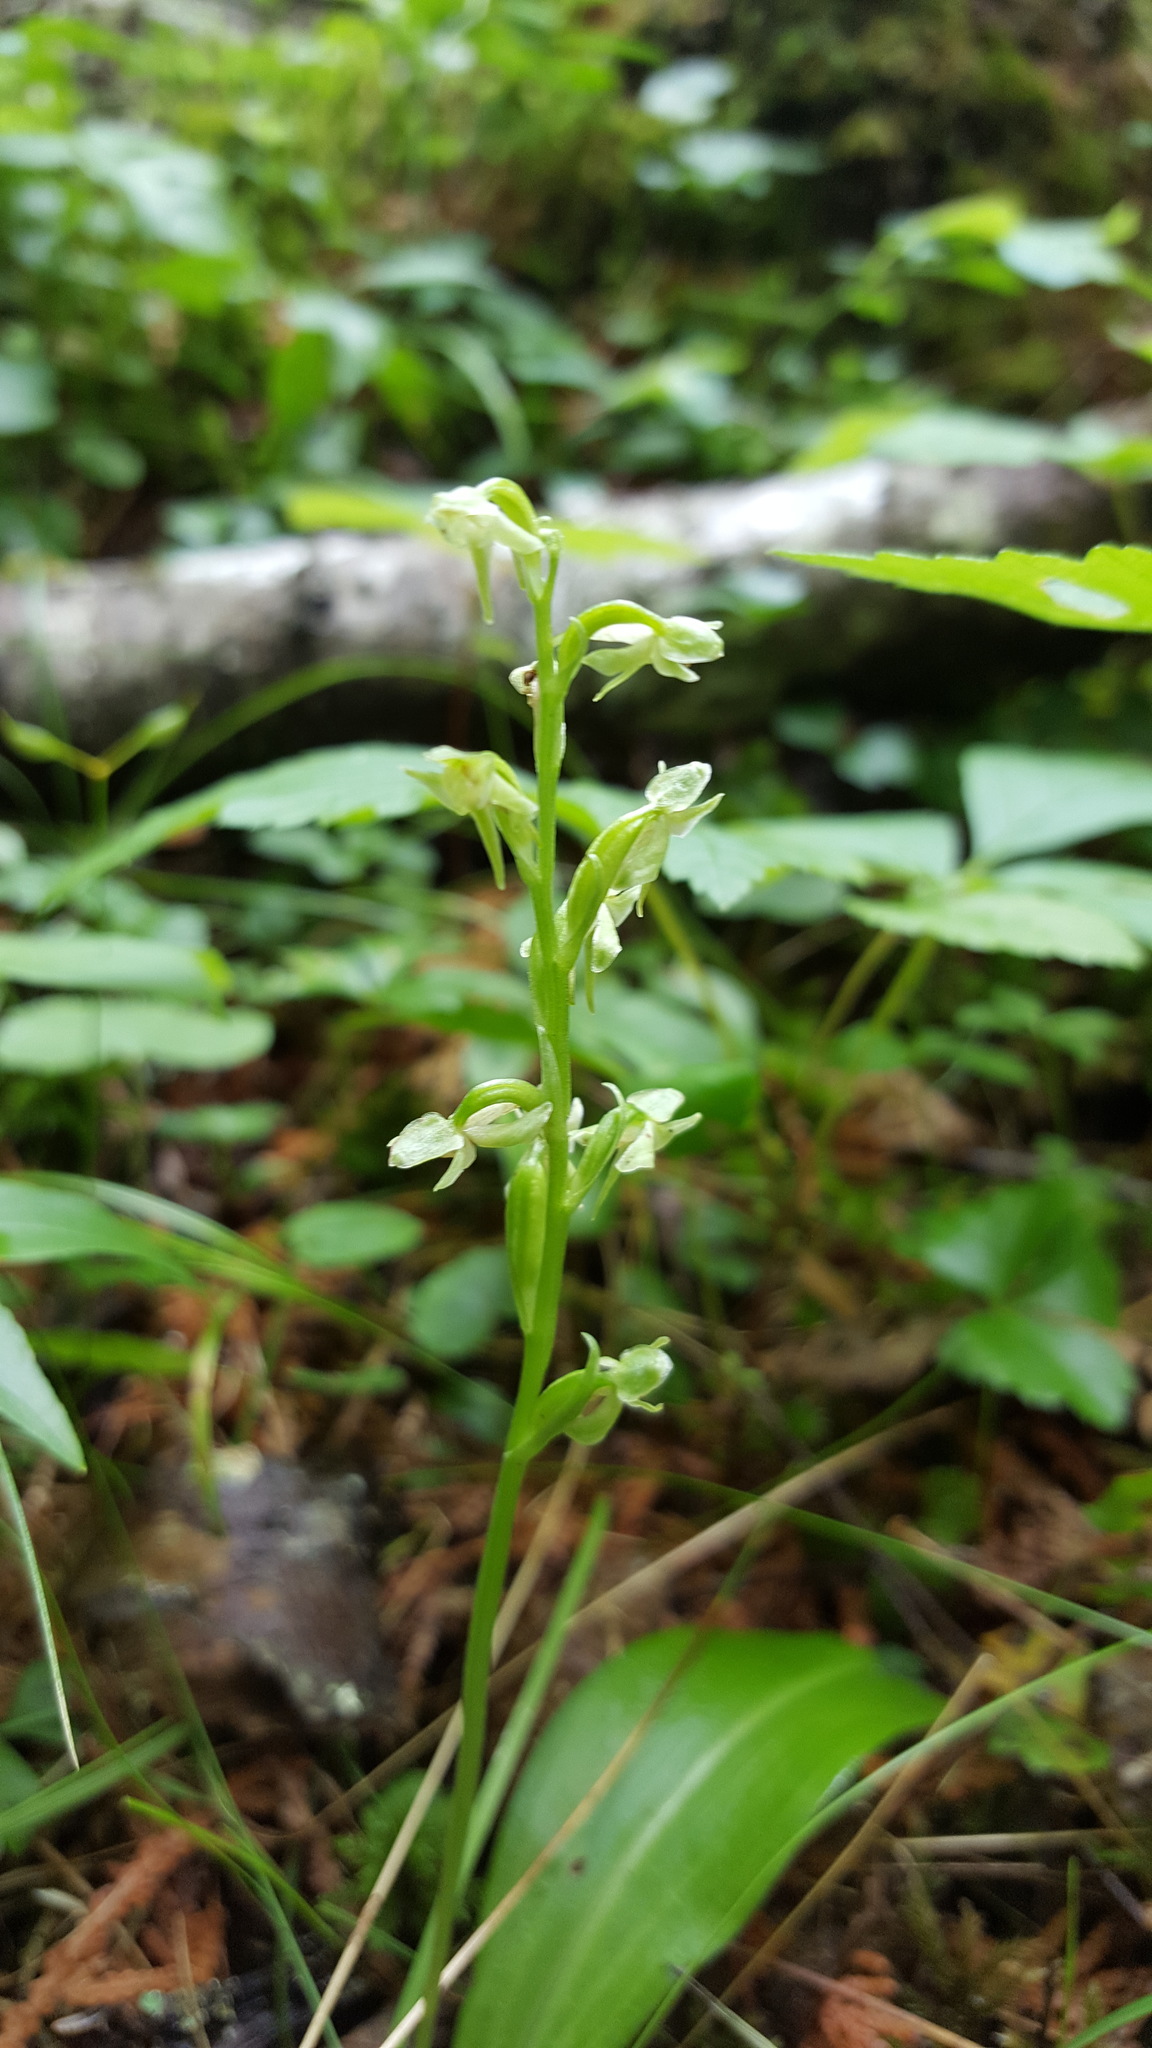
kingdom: Plantae
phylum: Tracheophyta
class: Liliopsida
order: Asparagales
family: Orchidaceae
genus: Platanthera
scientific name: Platanthera obtusata
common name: Blunt bog orchid
